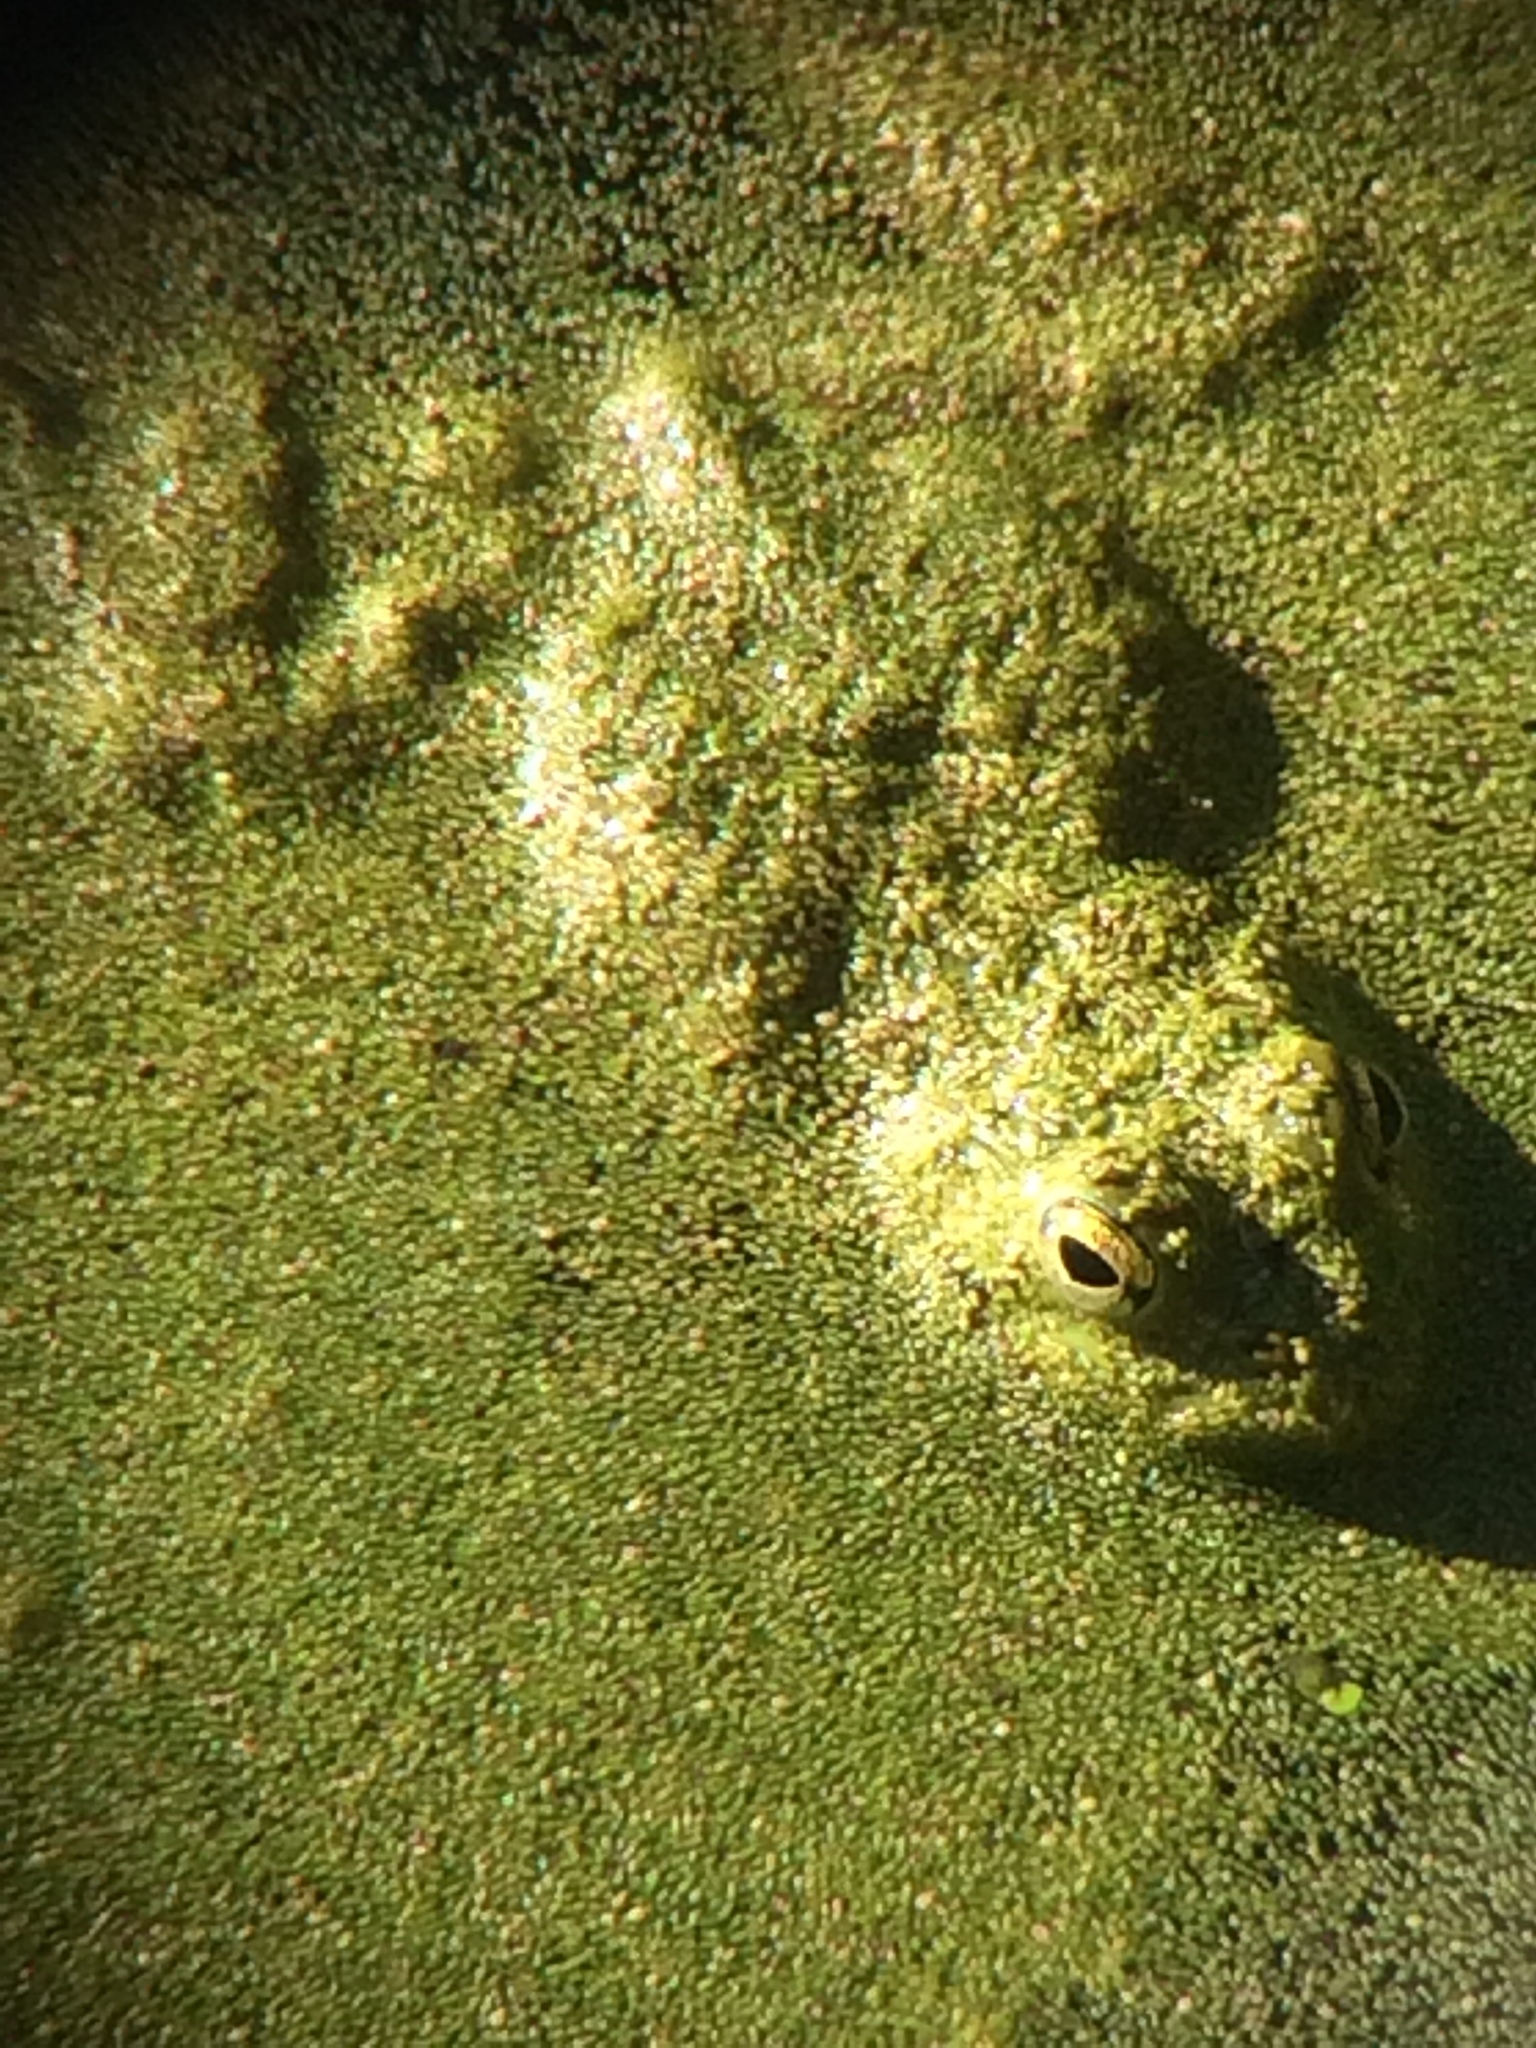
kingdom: Animalia
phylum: Chordata
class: Amphibia
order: Anura
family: Ranidae
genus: Lithobates
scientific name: Lithobates catesbeianus
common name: American bullfrog
